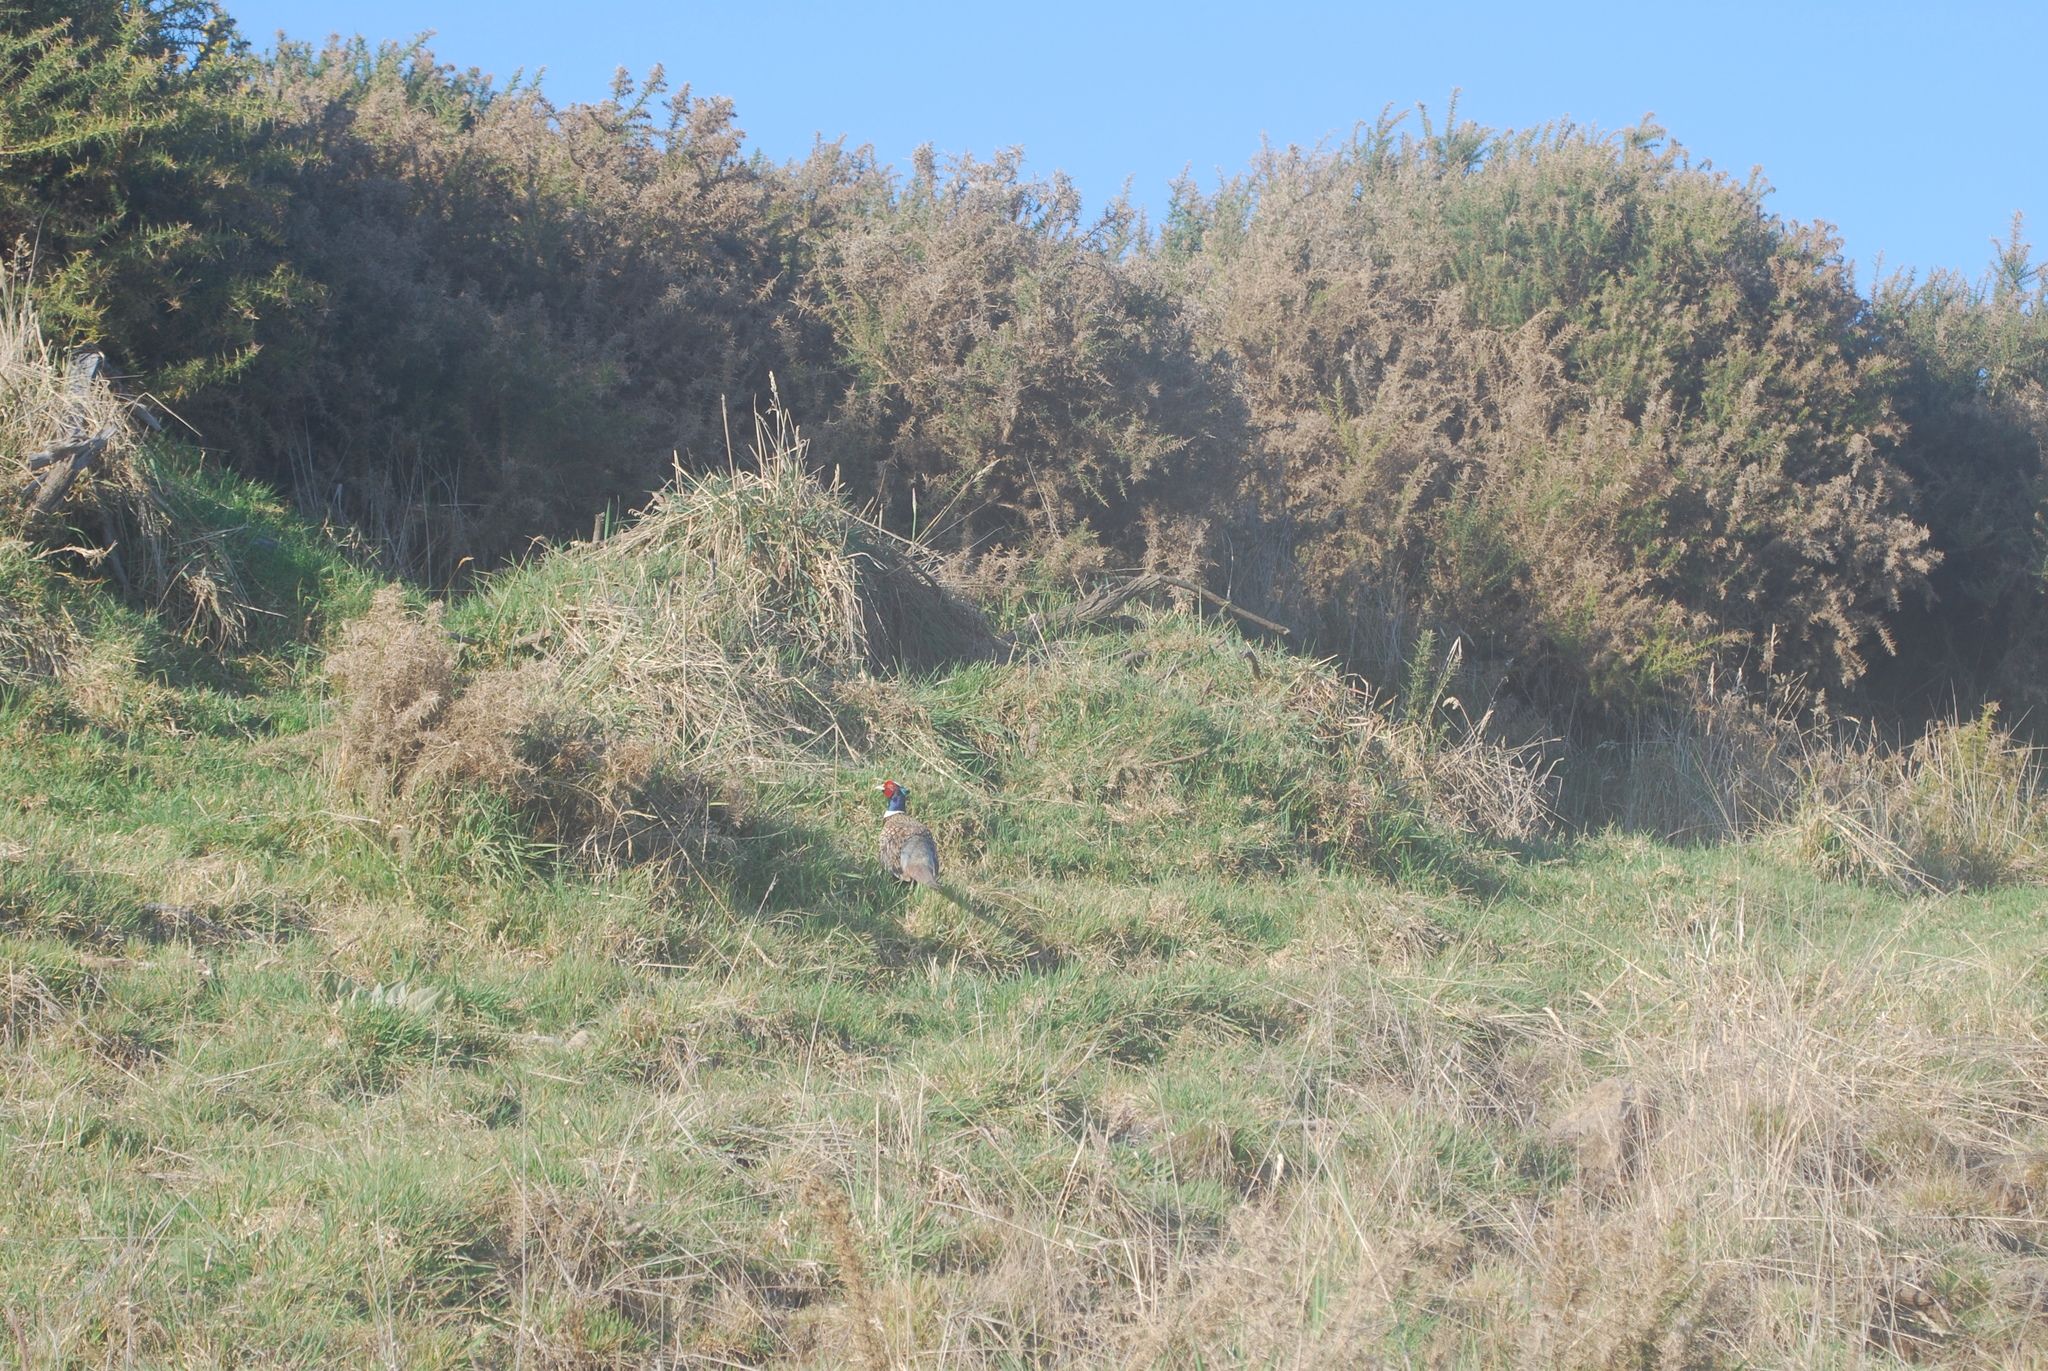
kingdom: Animalia
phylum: Chordata
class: Aves
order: Galliformes
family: Phasianidae
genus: Phasianus
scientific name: Phasianus colchicus
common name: Common pheasant
